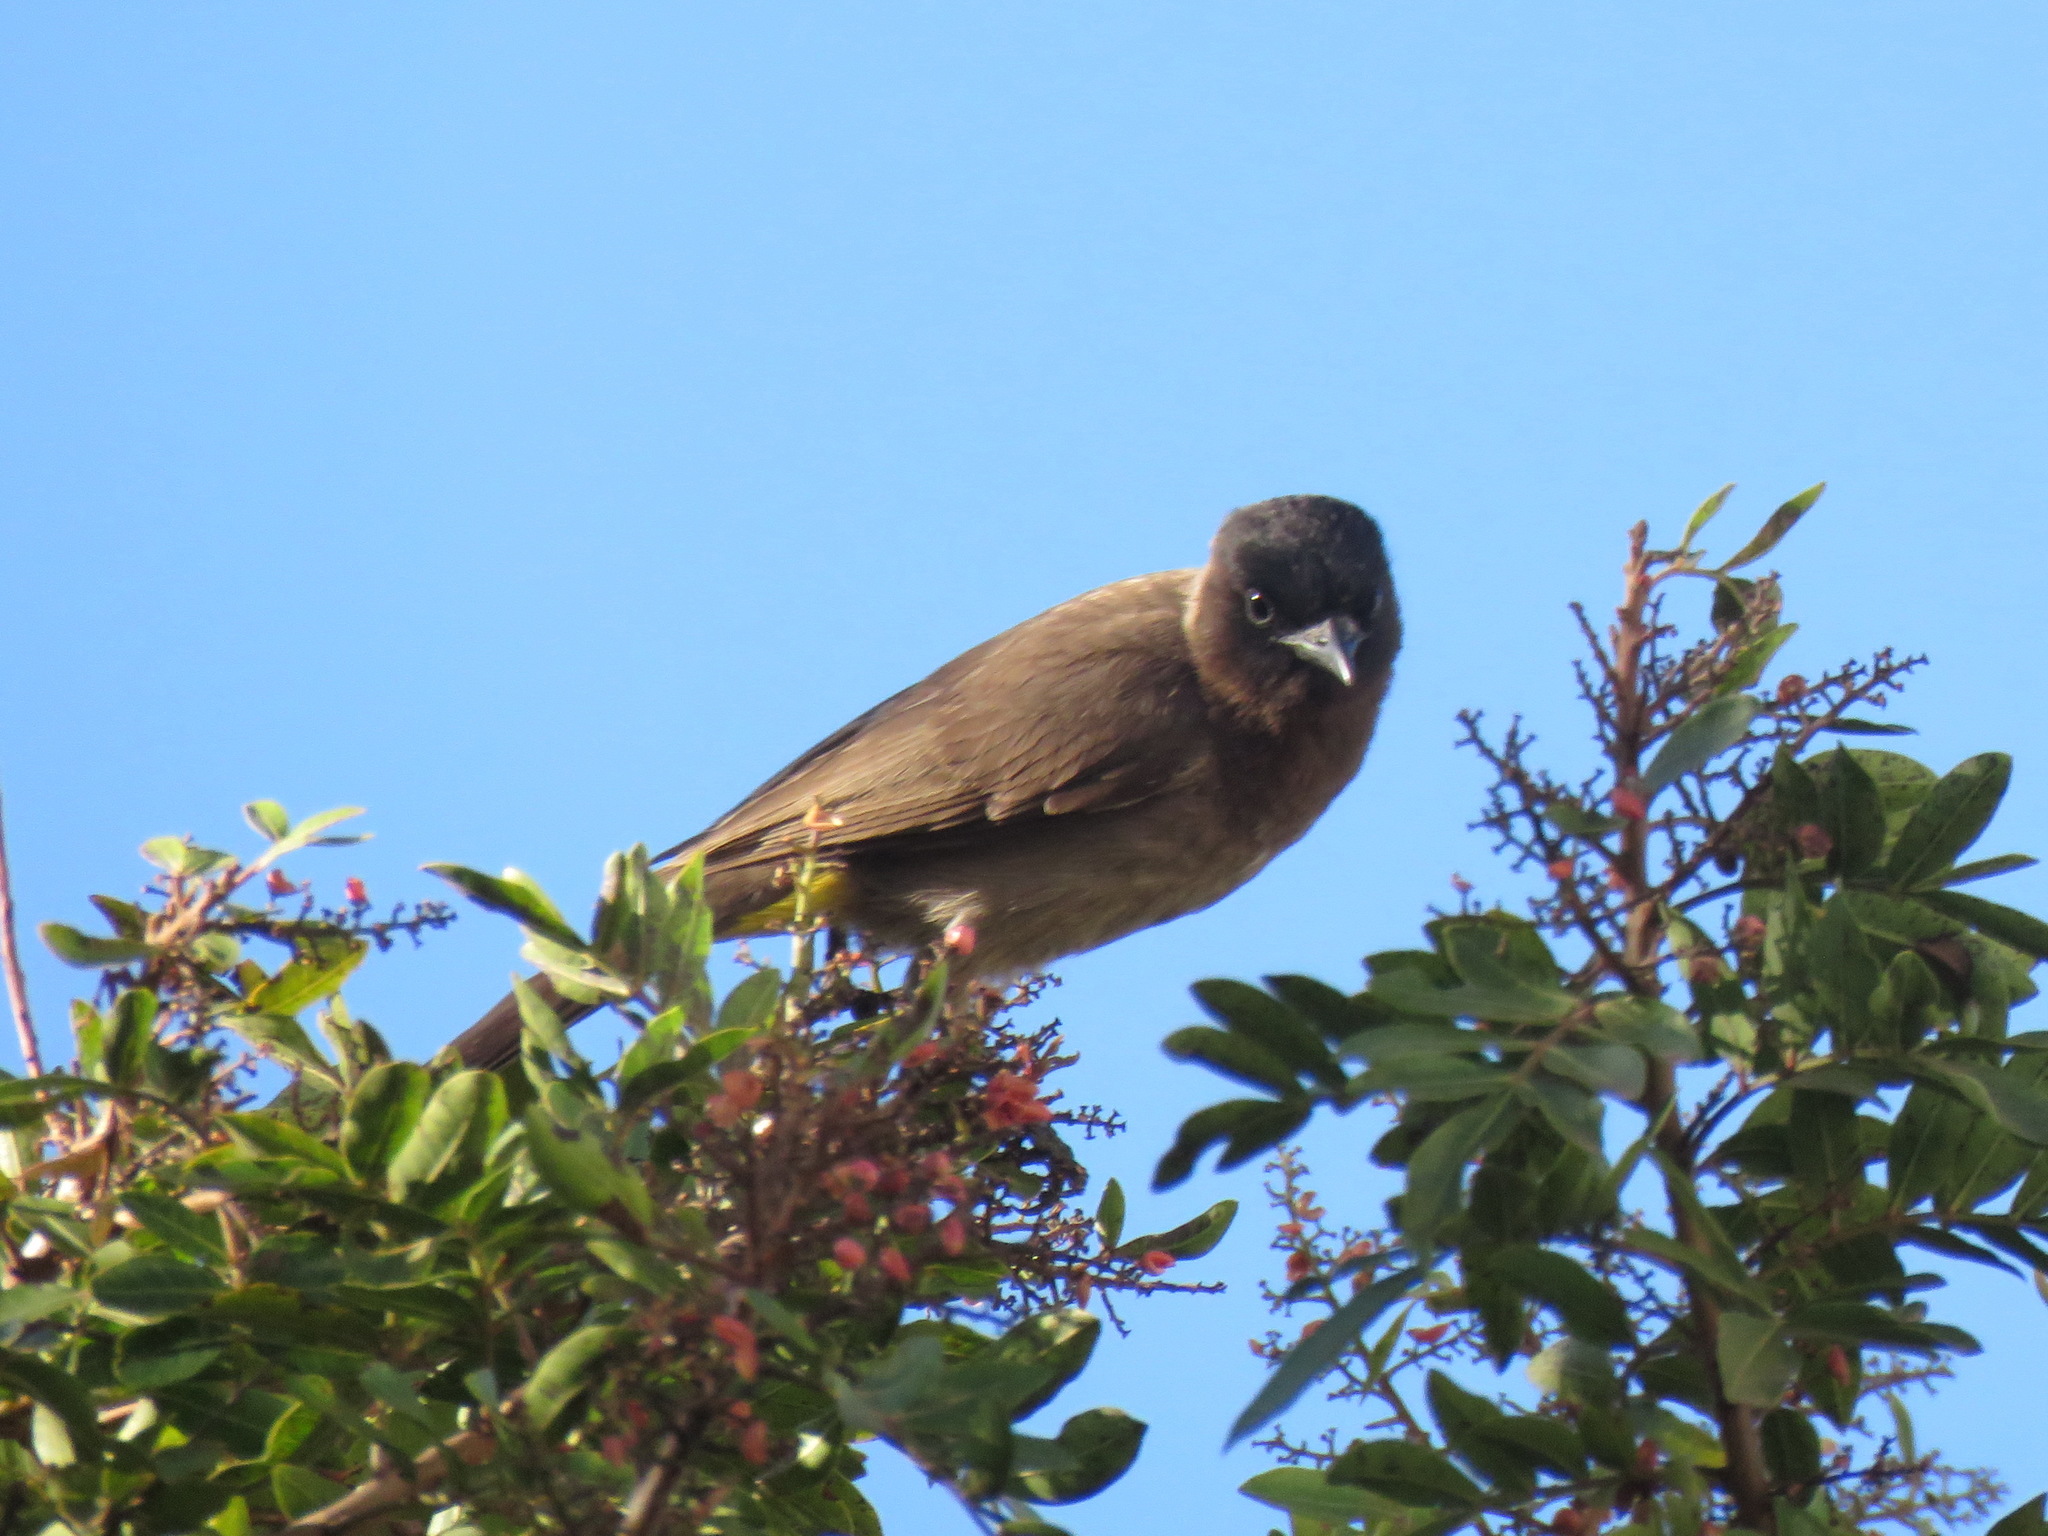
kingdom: Animalia
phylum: Chordata
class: Aves
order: Passeriformes
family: Pycnonotidae
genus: Pycnonotus
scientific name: Pycnonotus barbatus
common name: Common bulbul
